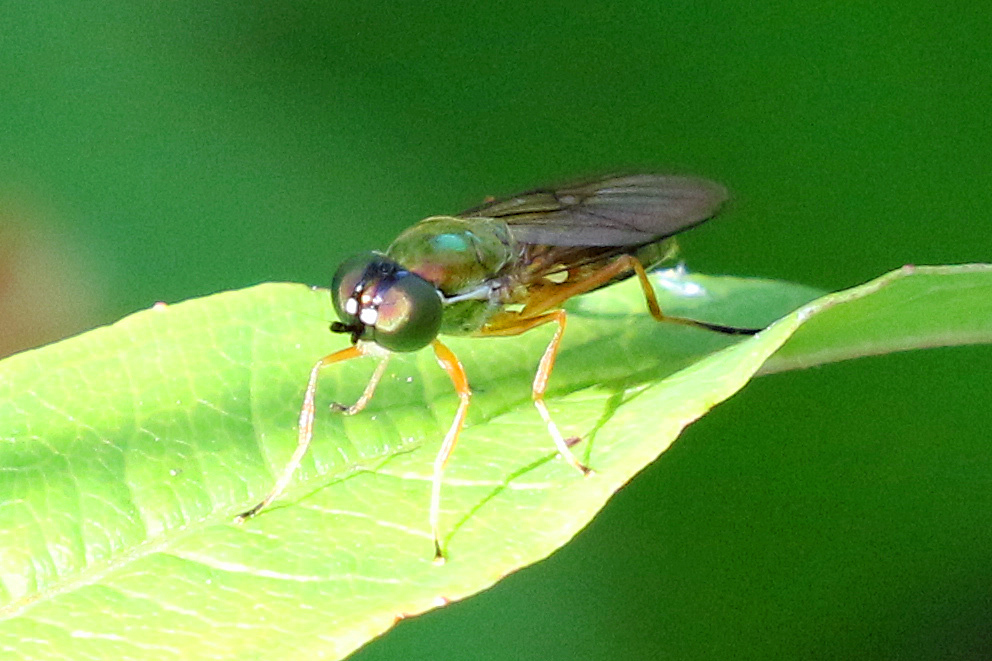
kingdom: Animalia
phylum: Arthropoda
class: Insecta
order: Diptera
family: Stratiomyidae
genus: Sargus
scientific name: Sargus bipunctatus
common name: Twin-spot centurion
